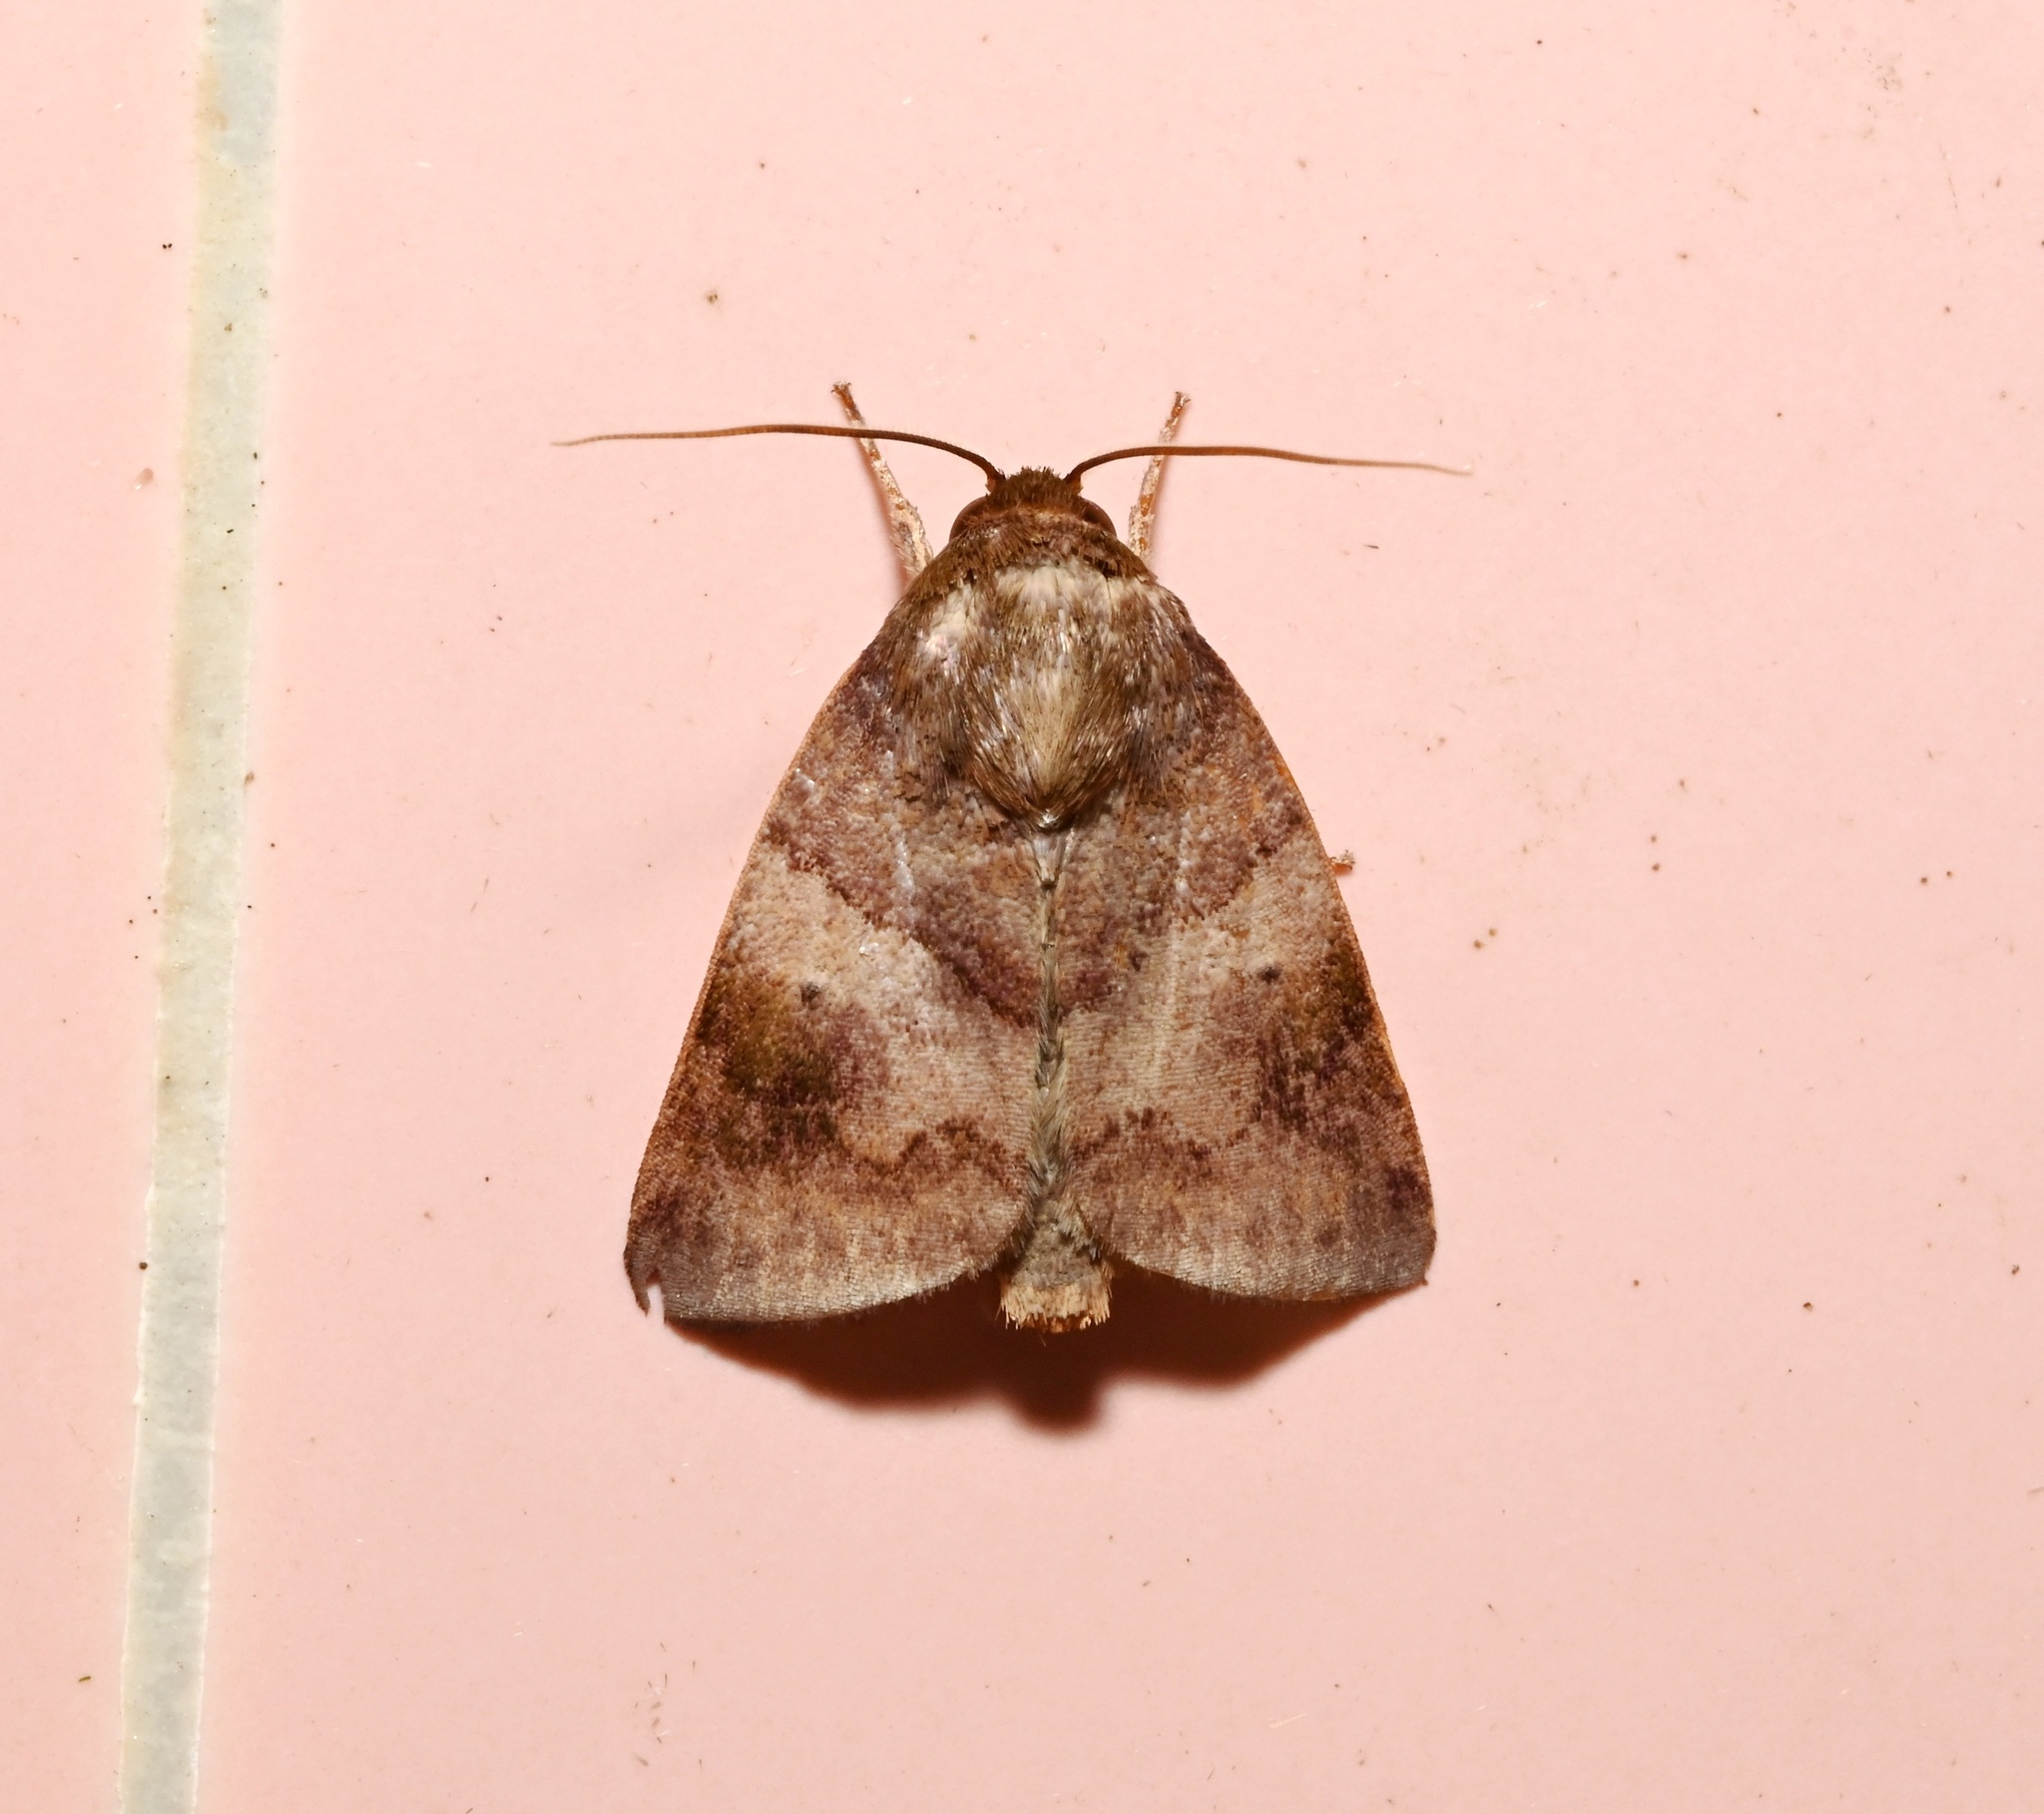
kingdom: Animalia
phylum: Arthropoda
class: Insecta
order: Lepidoptera
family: Nolidae
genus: Carea
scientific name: Carea internifusca
